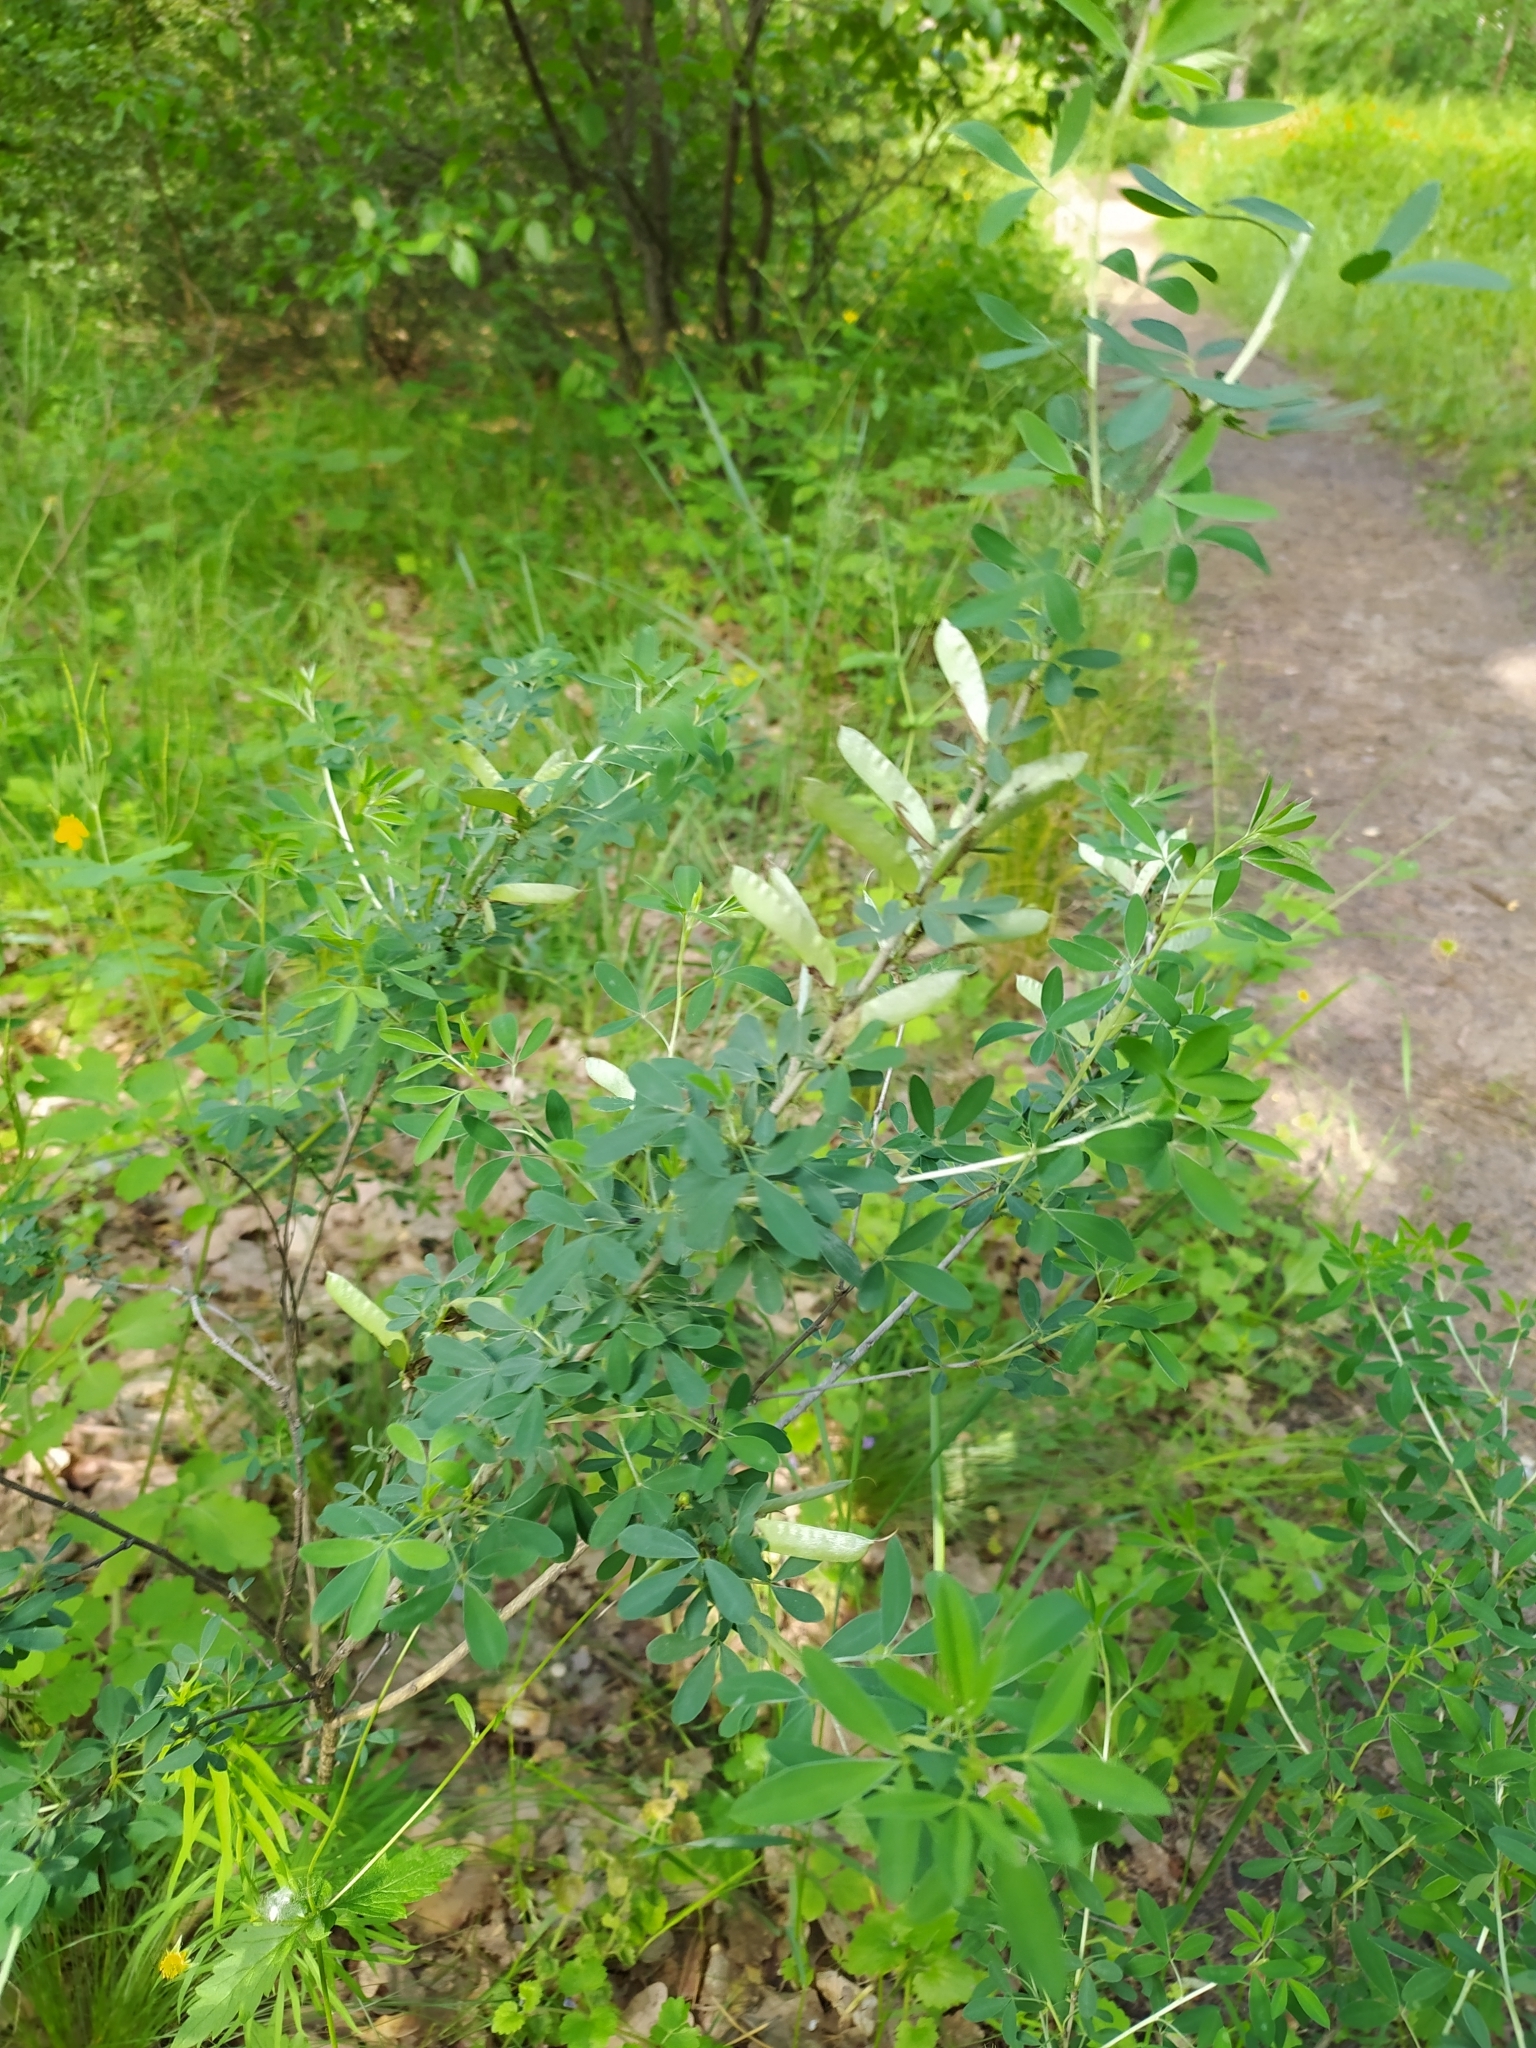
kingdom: Plantae
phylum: Tracheophyta
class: Magnoliopsida
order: Fabales
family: Fabaceae
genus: Chamaecytisus
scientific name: Chamaecytisus ruthenicus
